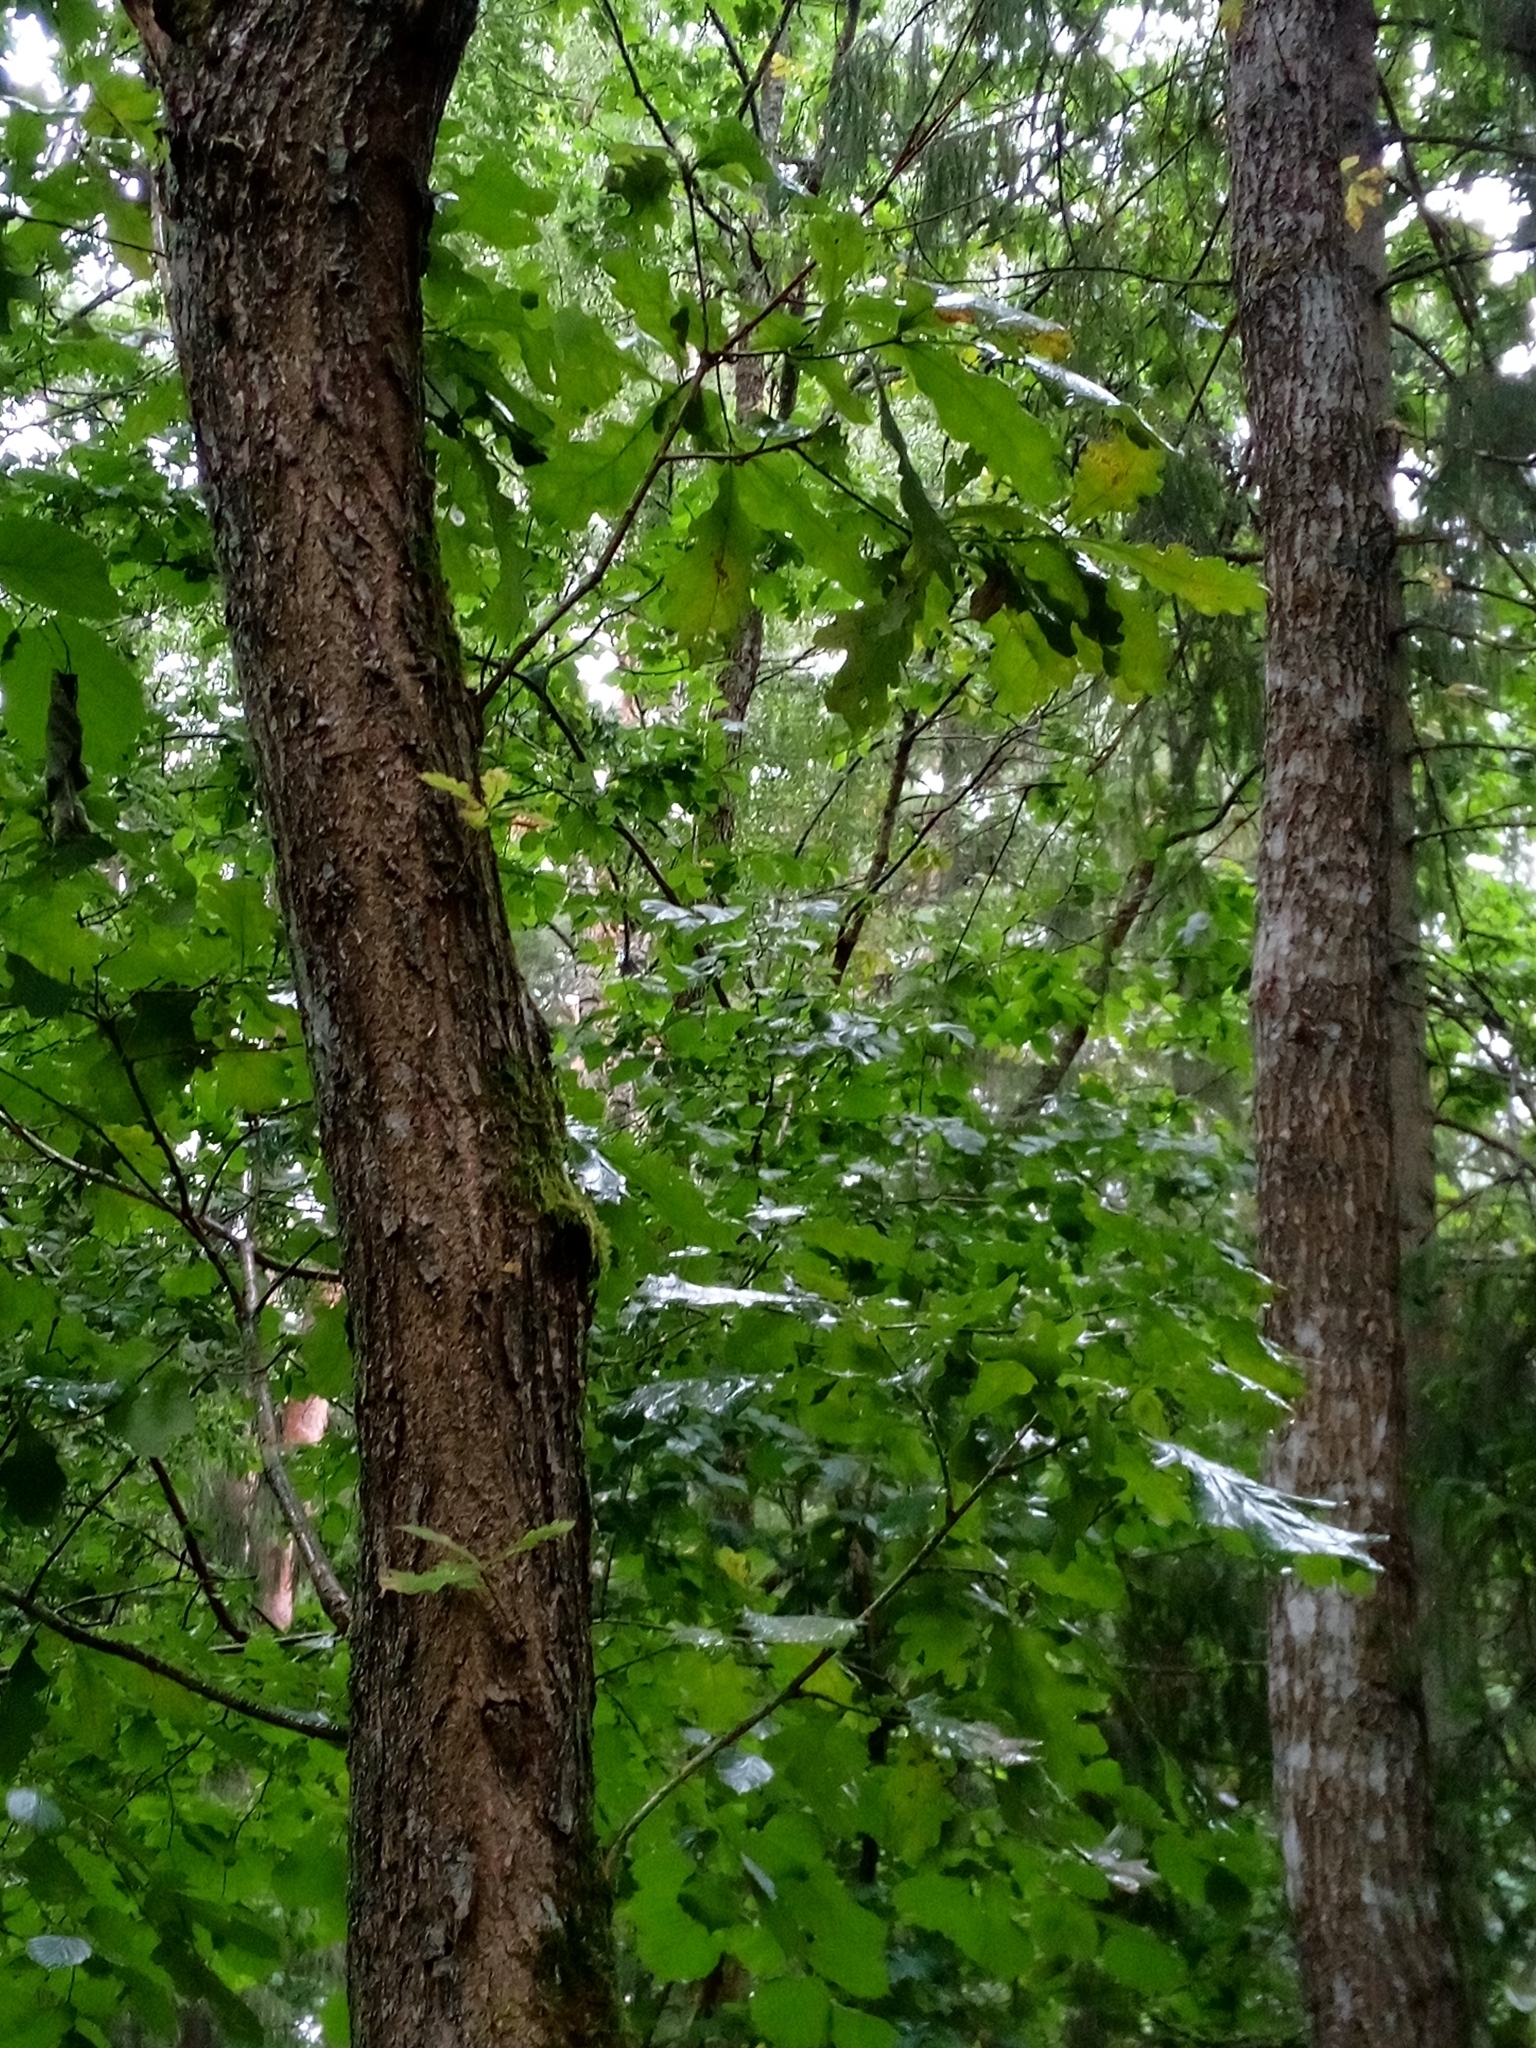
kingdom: Plantae
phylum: Tracheophyta
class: Magnoliopsida
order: Fagales
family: Fagaceae
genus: Quercus
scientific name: Quercus robur
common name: Pedunculate oak
